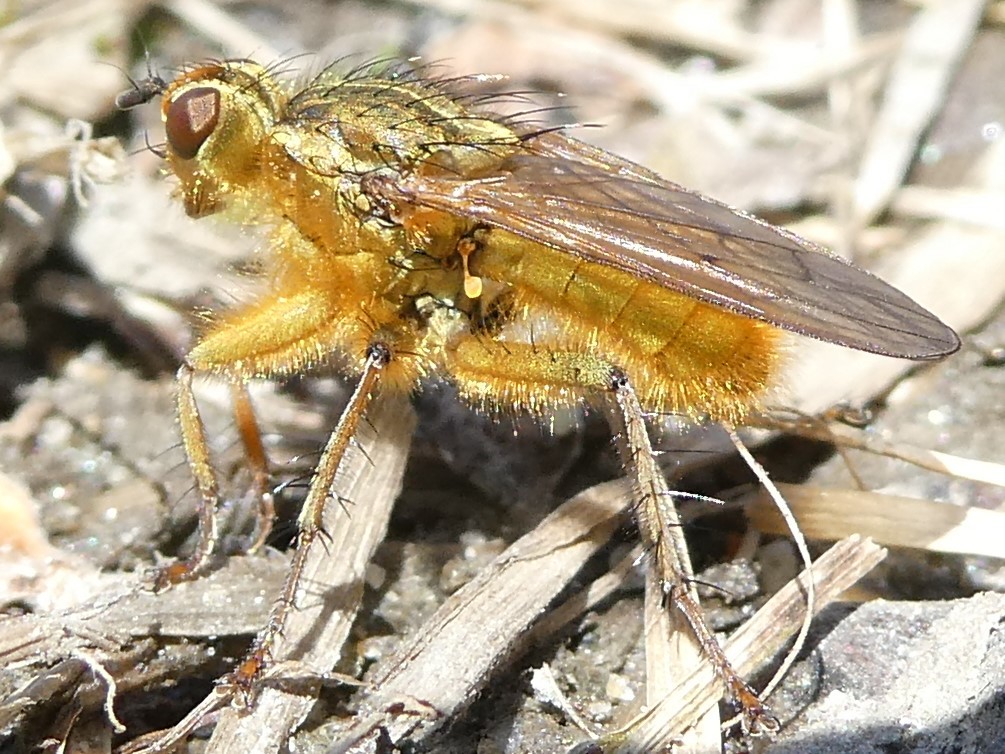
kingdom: Animalia
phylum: Arthropoda
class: Insecta
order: Diptera
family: Scathophagidae
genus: Scathophaga
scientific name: Scathophaga stercoraria
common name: Yellow dung fly
